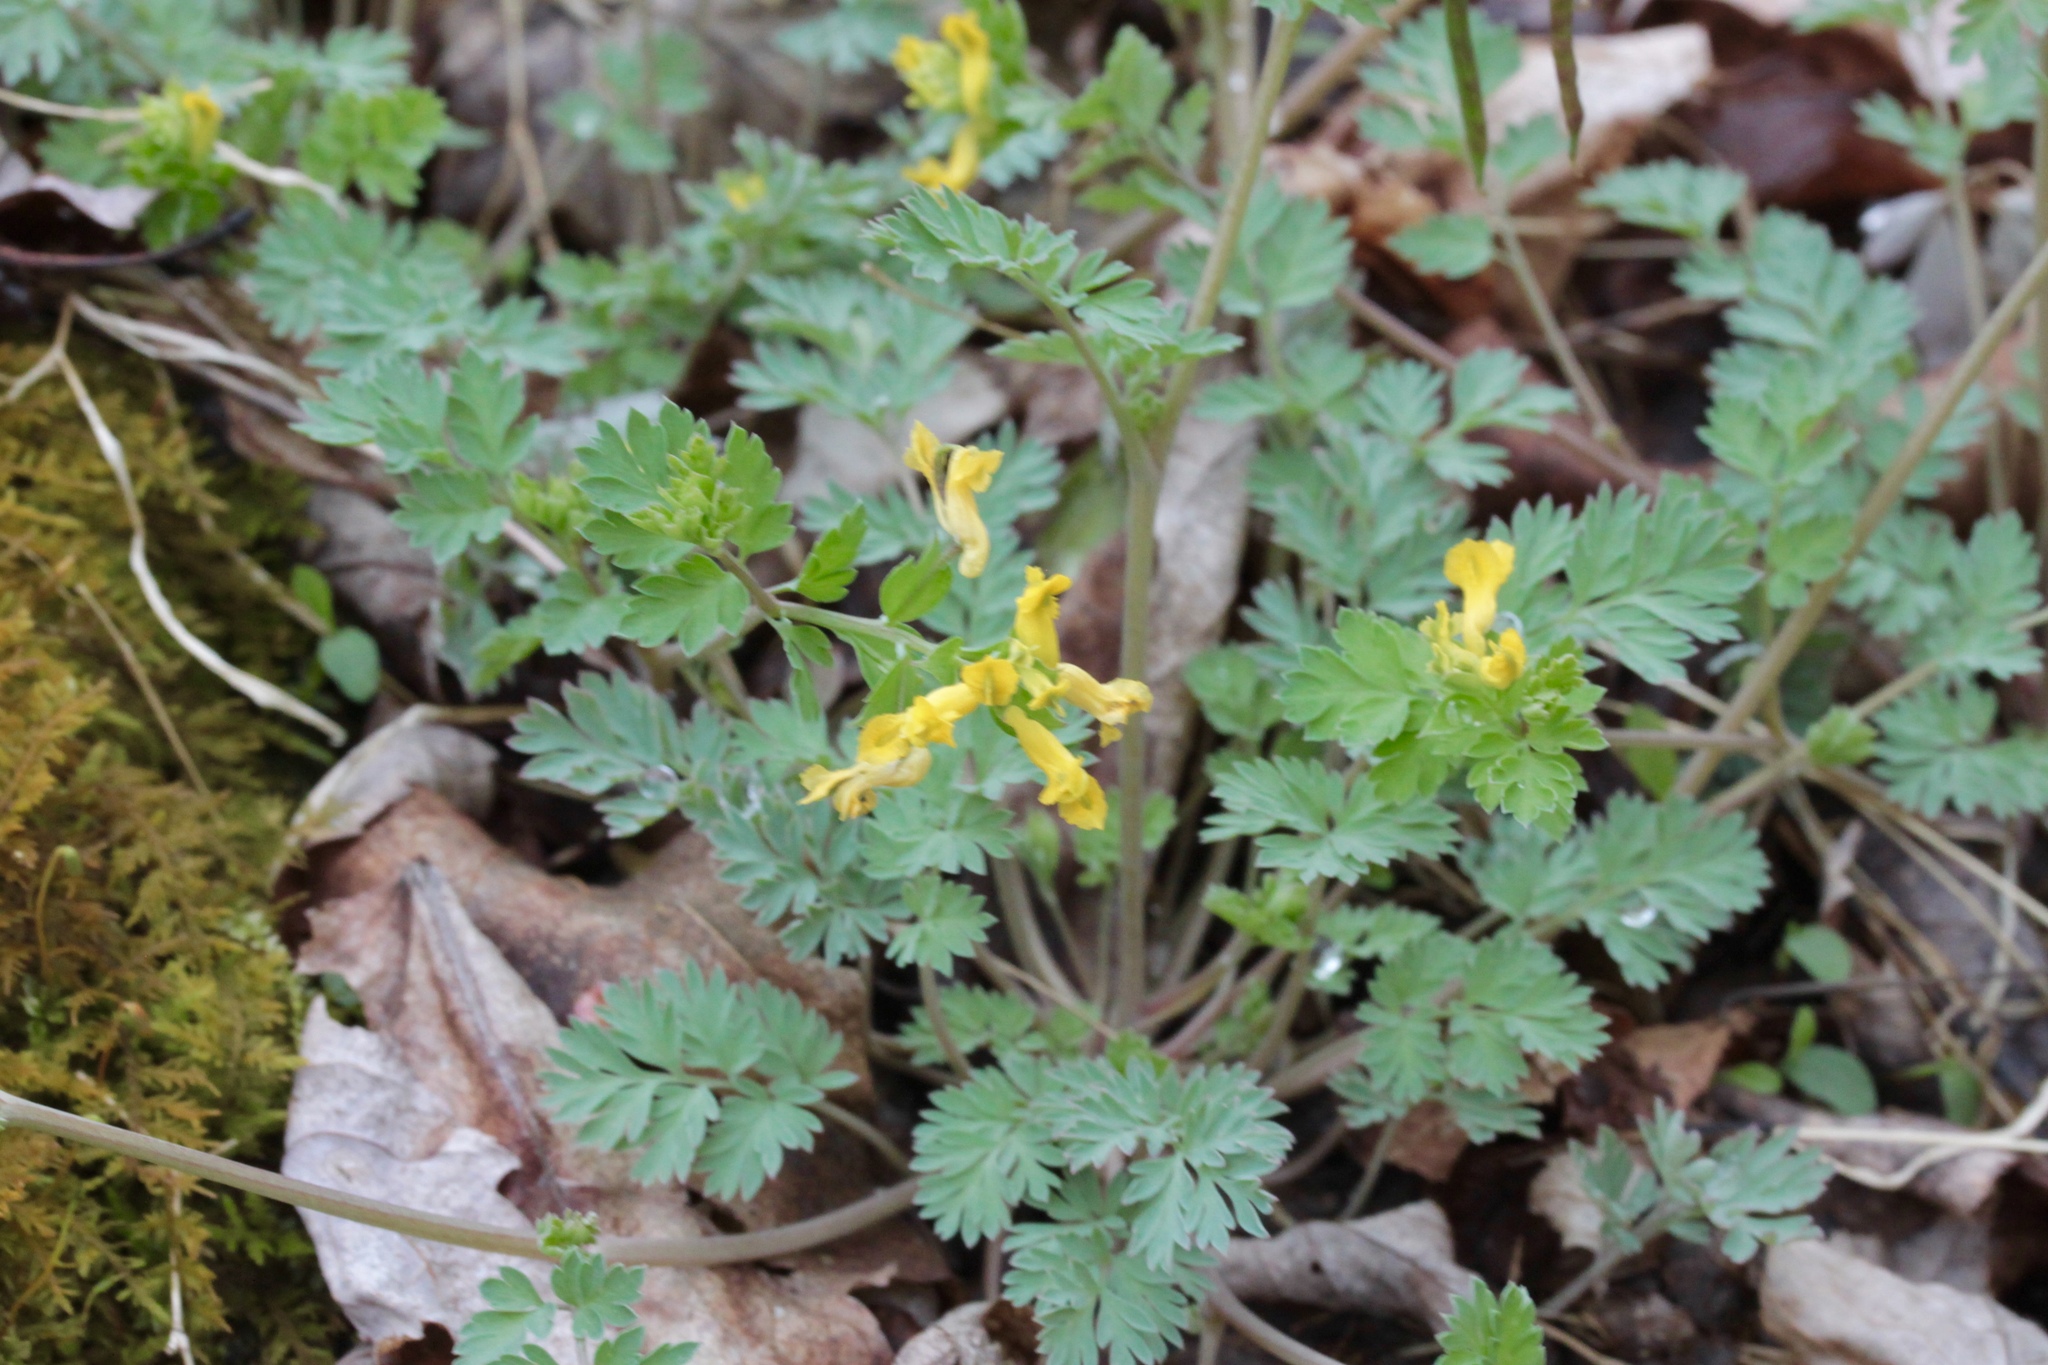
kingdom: Plantae
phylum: Tracheophyta
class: Magnoliopsida
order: Ranunculales
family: Papaveraceae
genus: Corydalis
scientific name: Corydalis flavula
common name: Yellow corydalis
